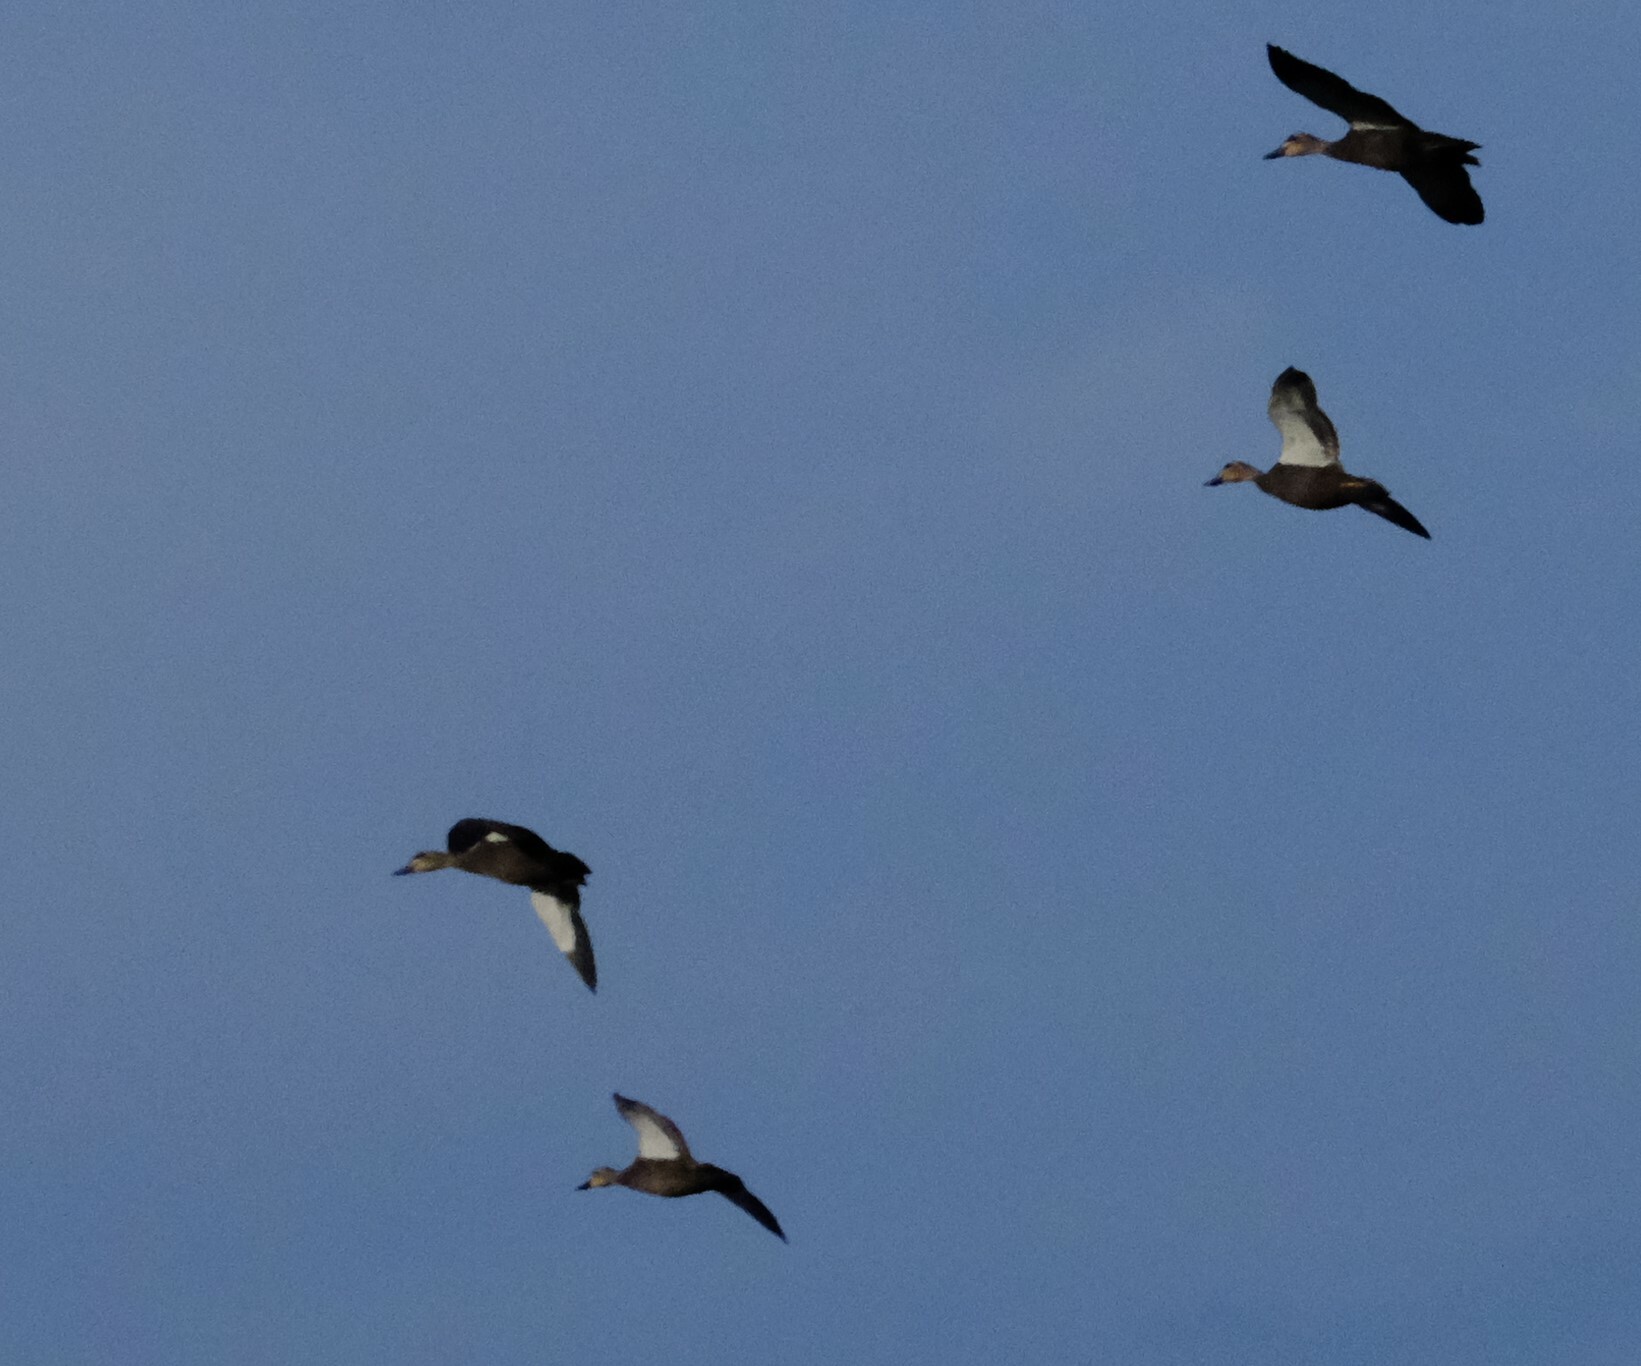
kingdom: Animalia
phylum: Chordata
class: Aves
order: Anseriformes
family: Anatidae
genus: Anas
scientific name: Anas superciliosa
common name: Pacific black duck
